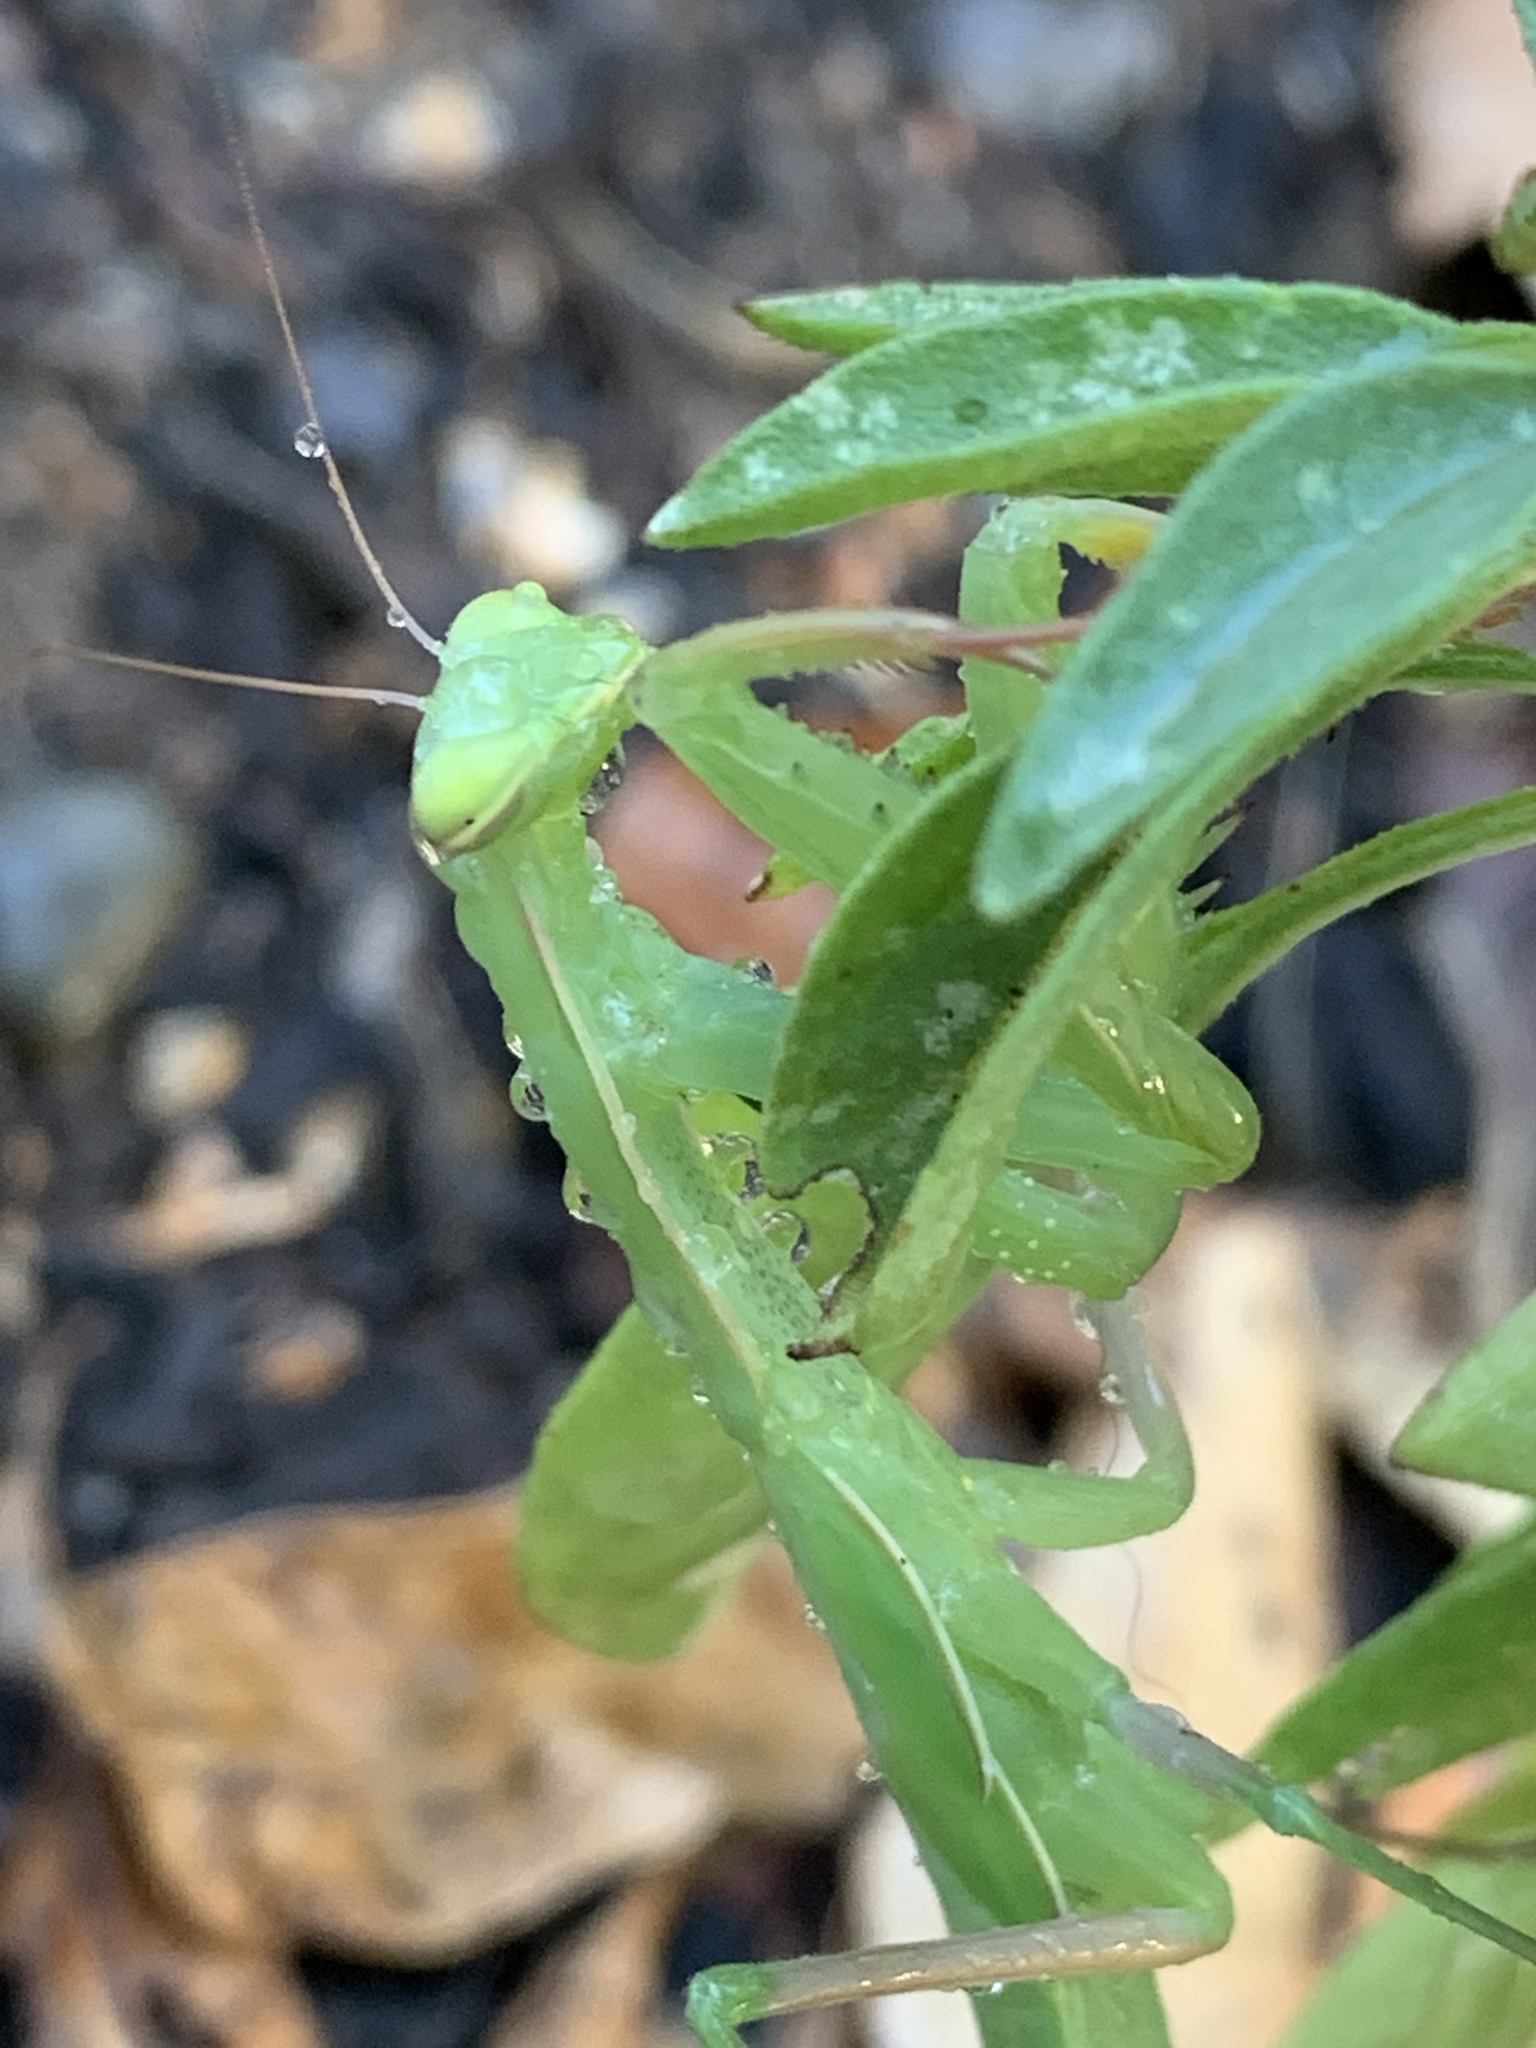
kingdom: Animalia
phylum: Arthropoda
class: Insecta
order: Mantodea
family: Mantidae
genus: Mantis
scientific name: Mantis religiosa
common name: Praying mantis
